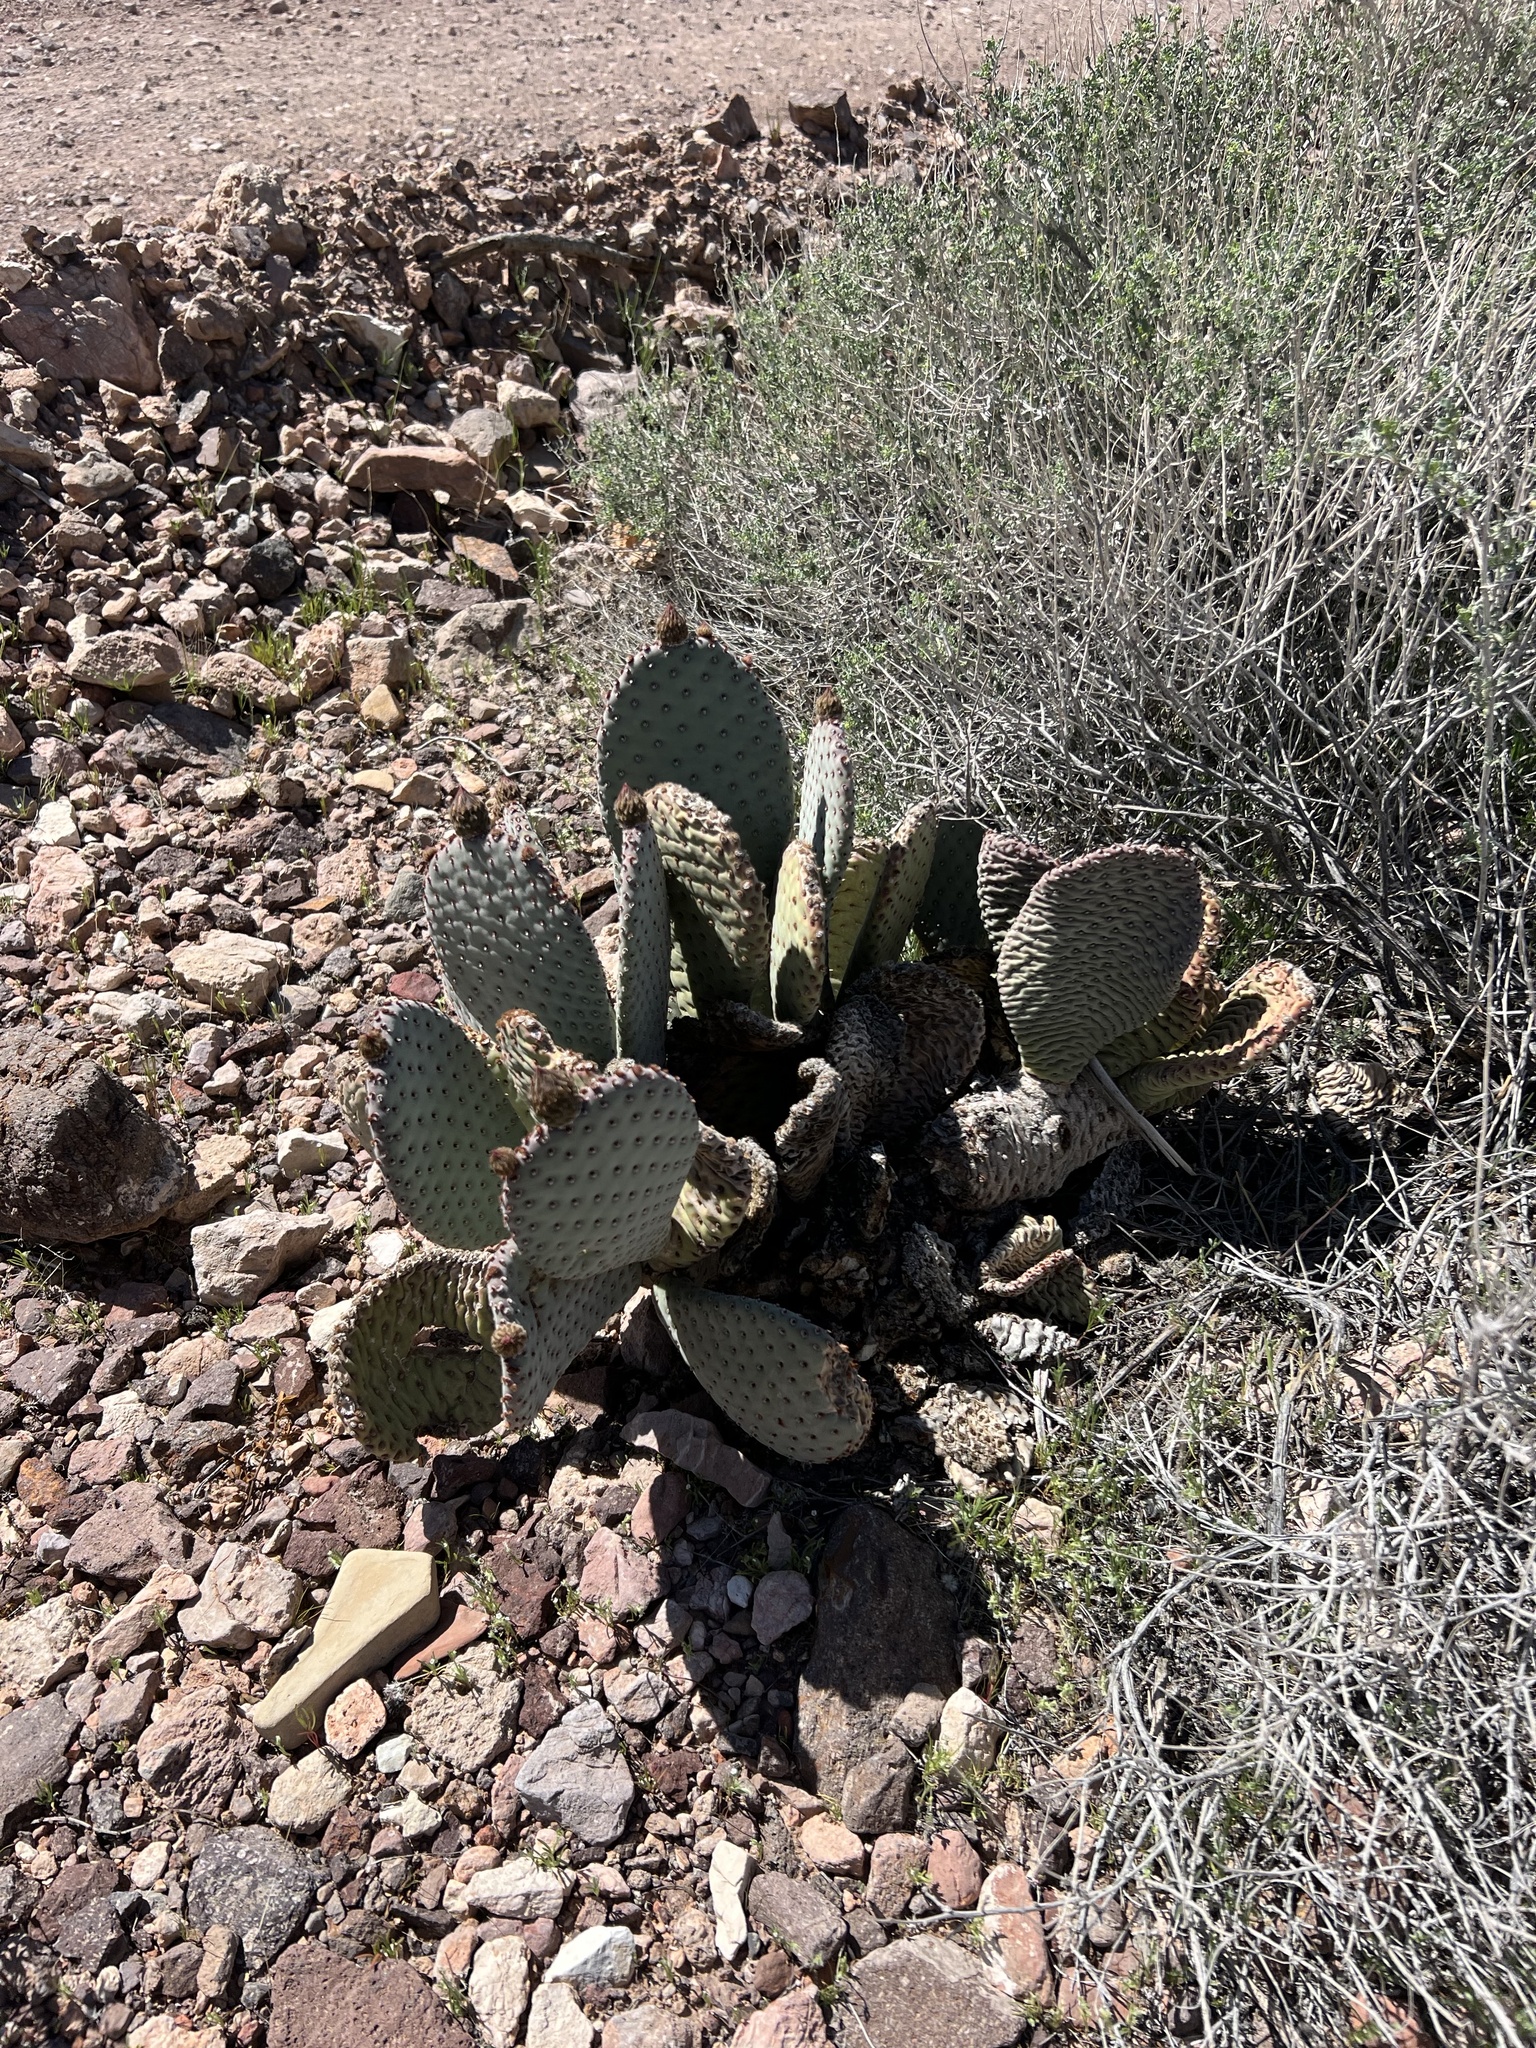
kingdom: Plantae
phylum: Tracheophyta
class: Magnoliopsida
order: Caryophyllales
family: Cactaceae
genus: Opuntia
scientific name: Opuntia basilaris
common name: Beavertail prickly-pear
